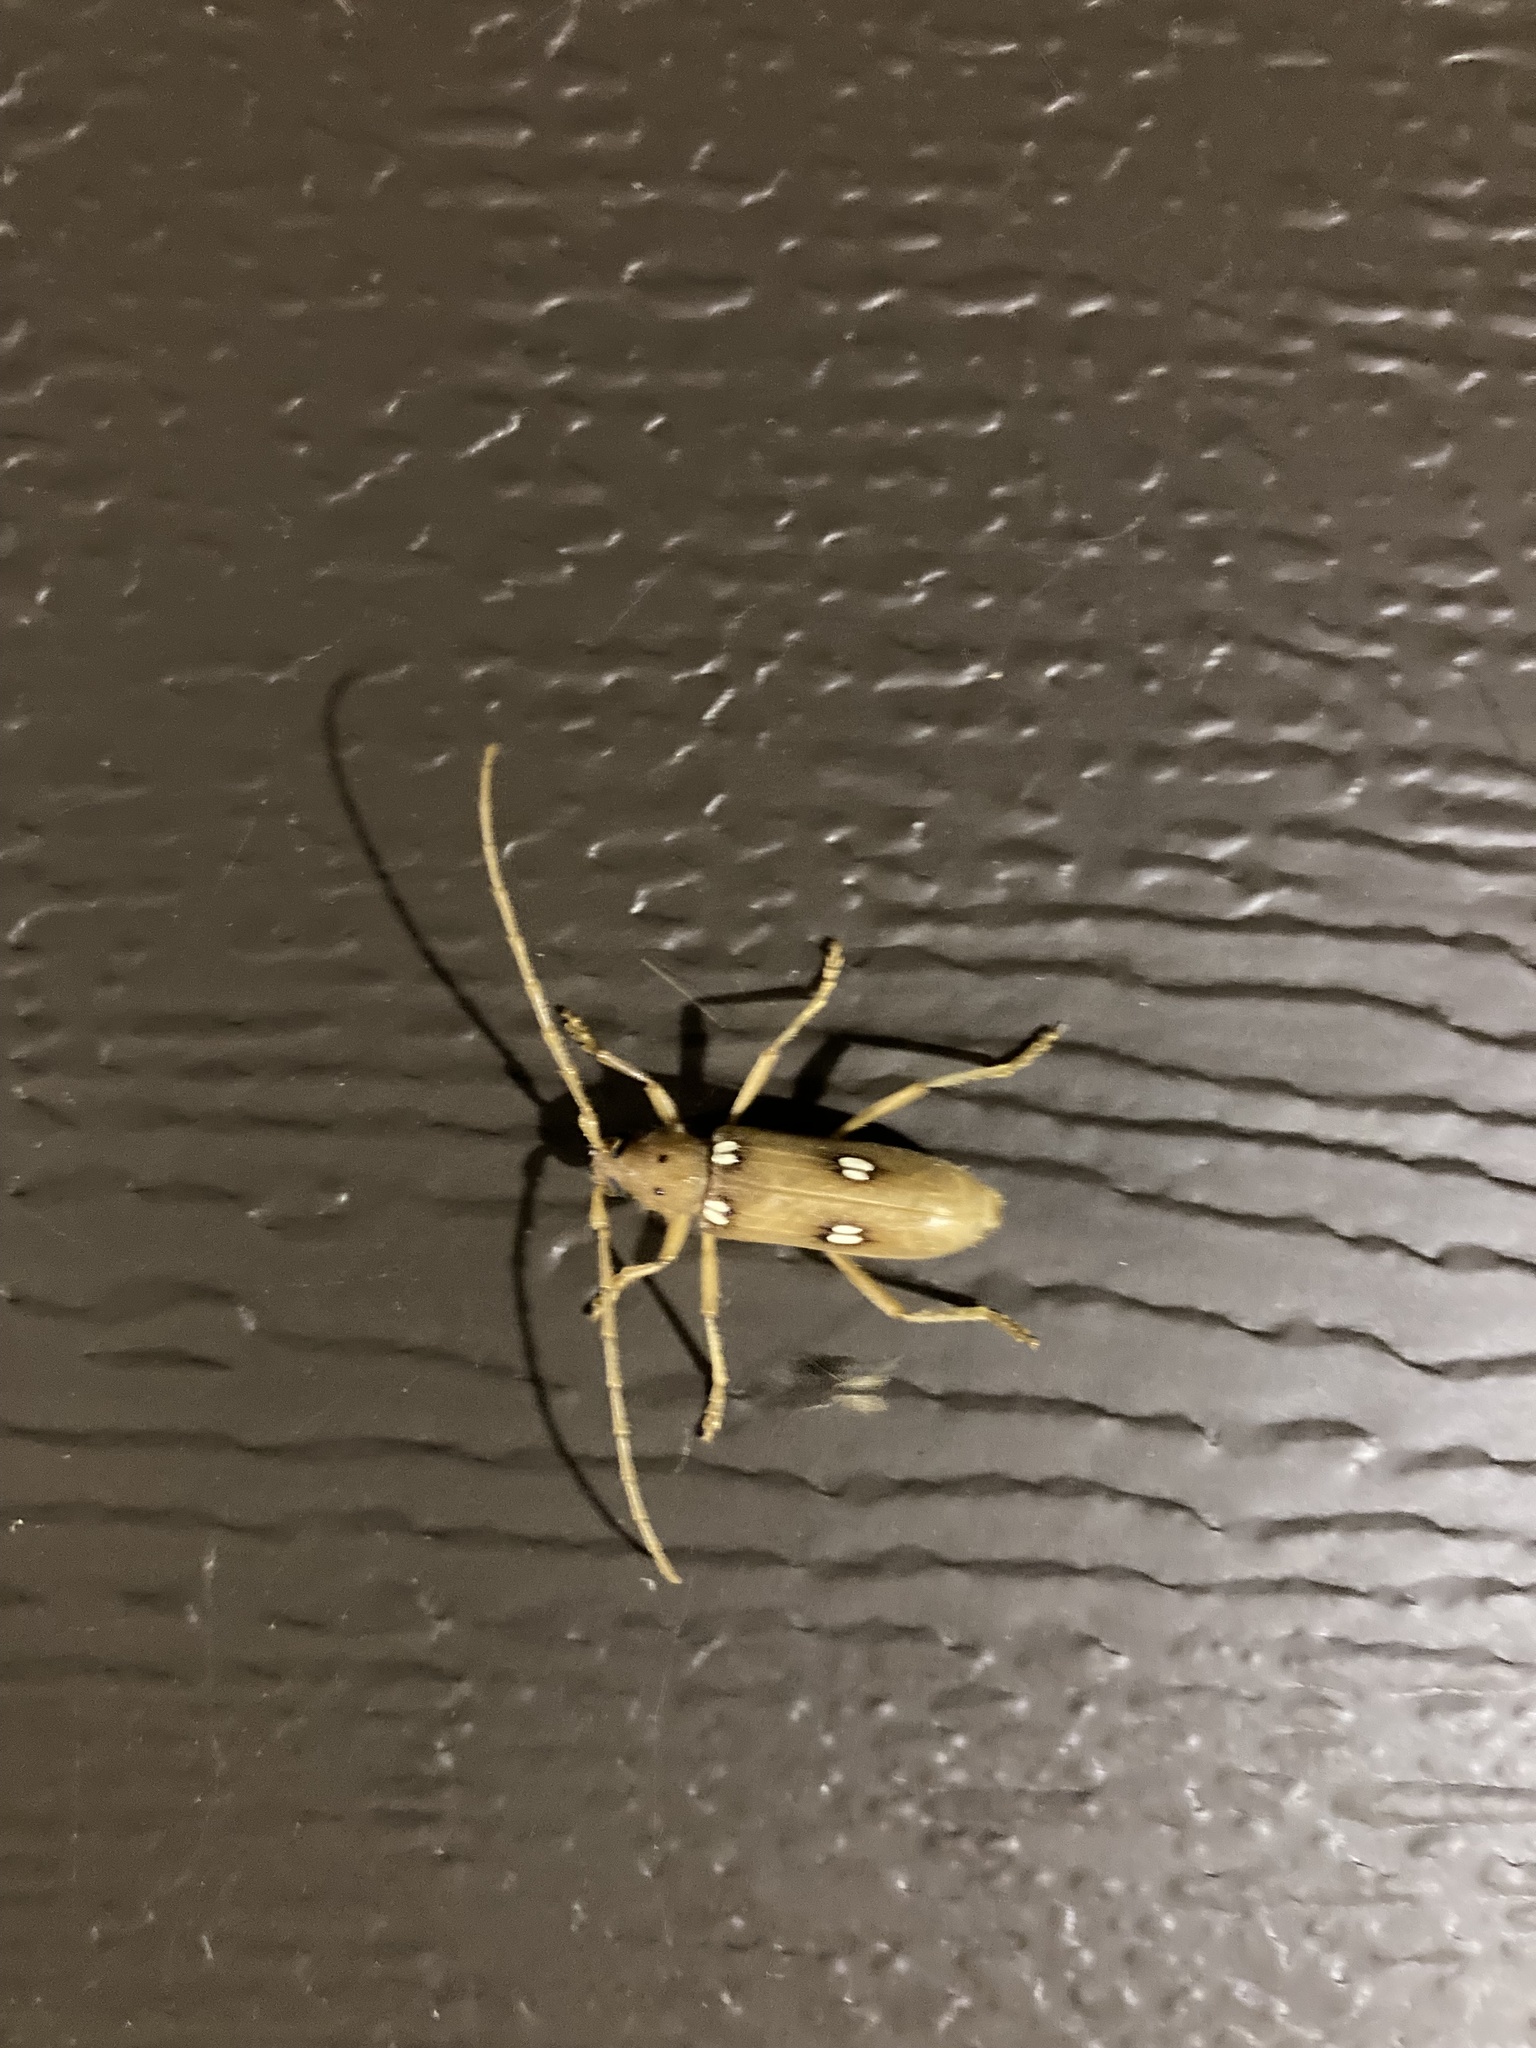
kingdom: Animalia
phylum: Arthropoda
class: Insecta
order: Coleoptera
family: Cerambycidae
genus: Eburia
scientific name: Eburia quadrigeminata
